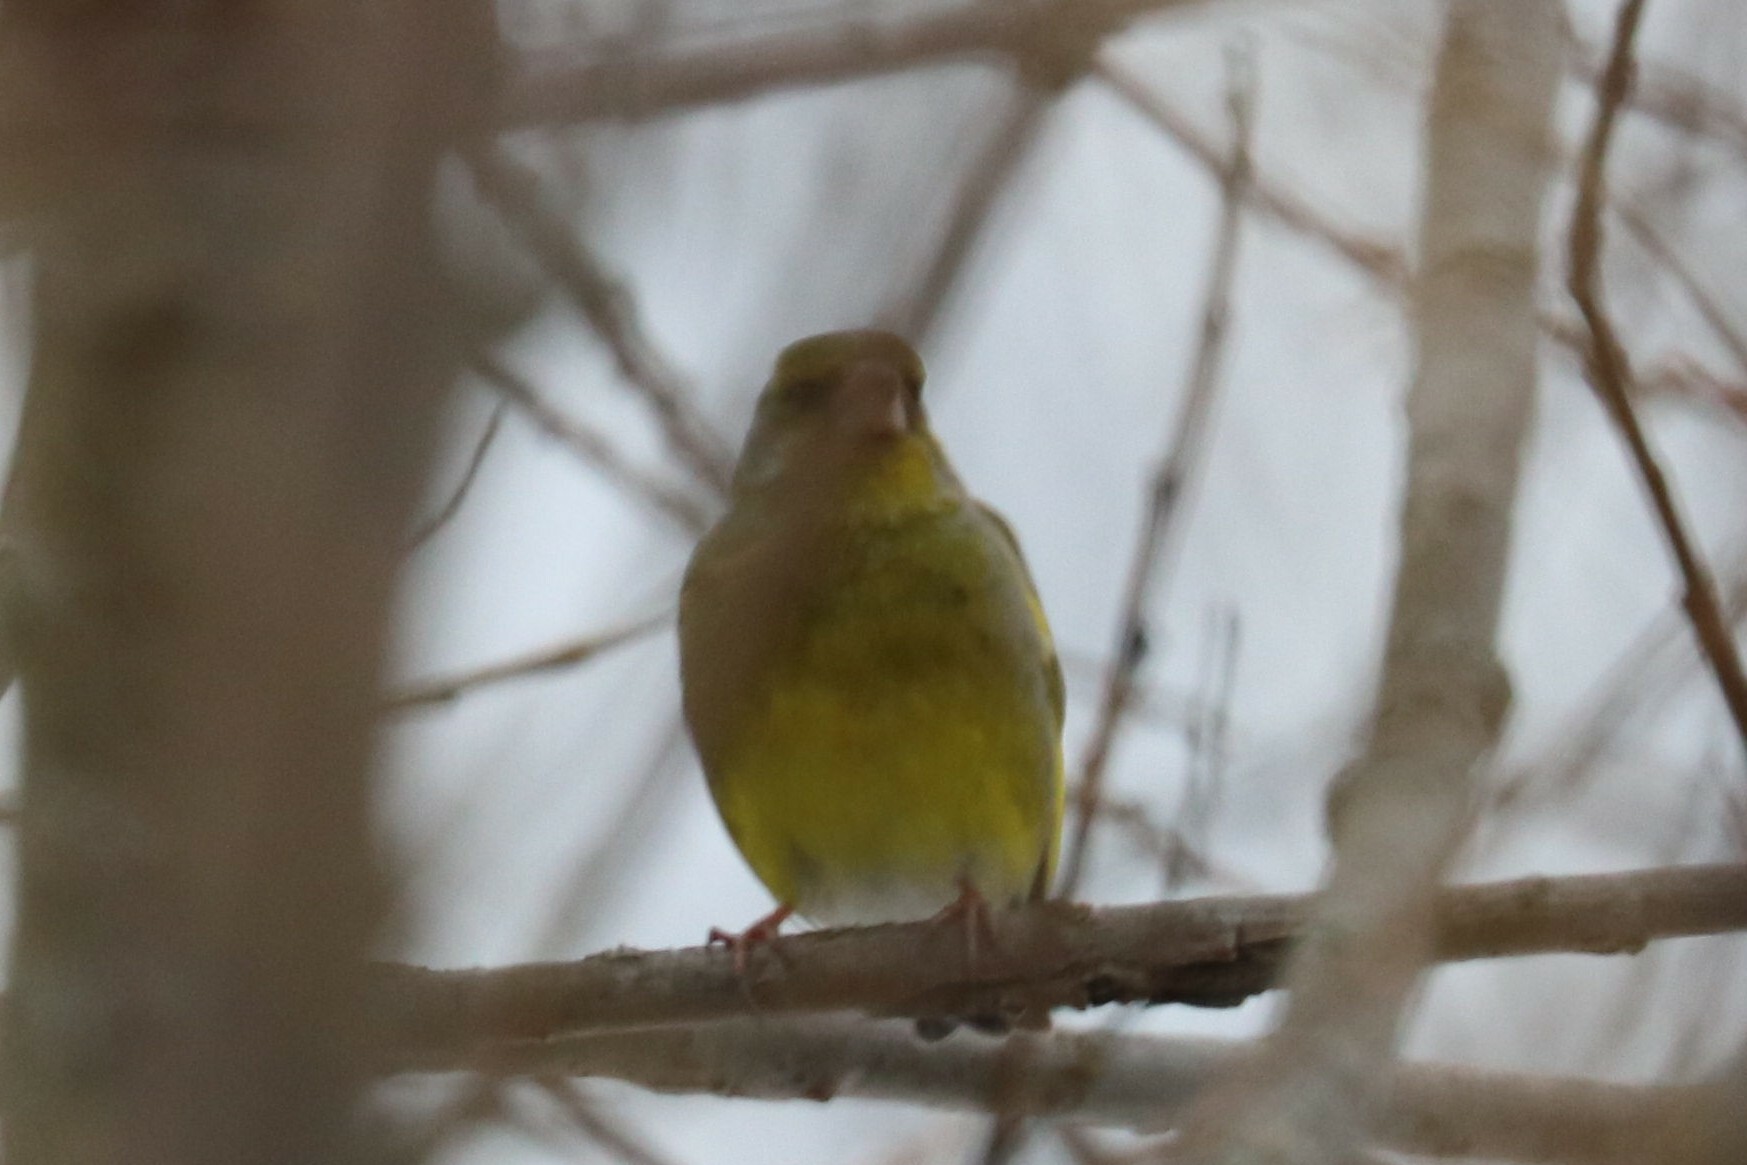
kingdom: Plantae
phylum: Tracheophyta
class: Liliopsida
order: Poales
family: Poaceae
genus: Chloris
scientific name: Chloris chloris
